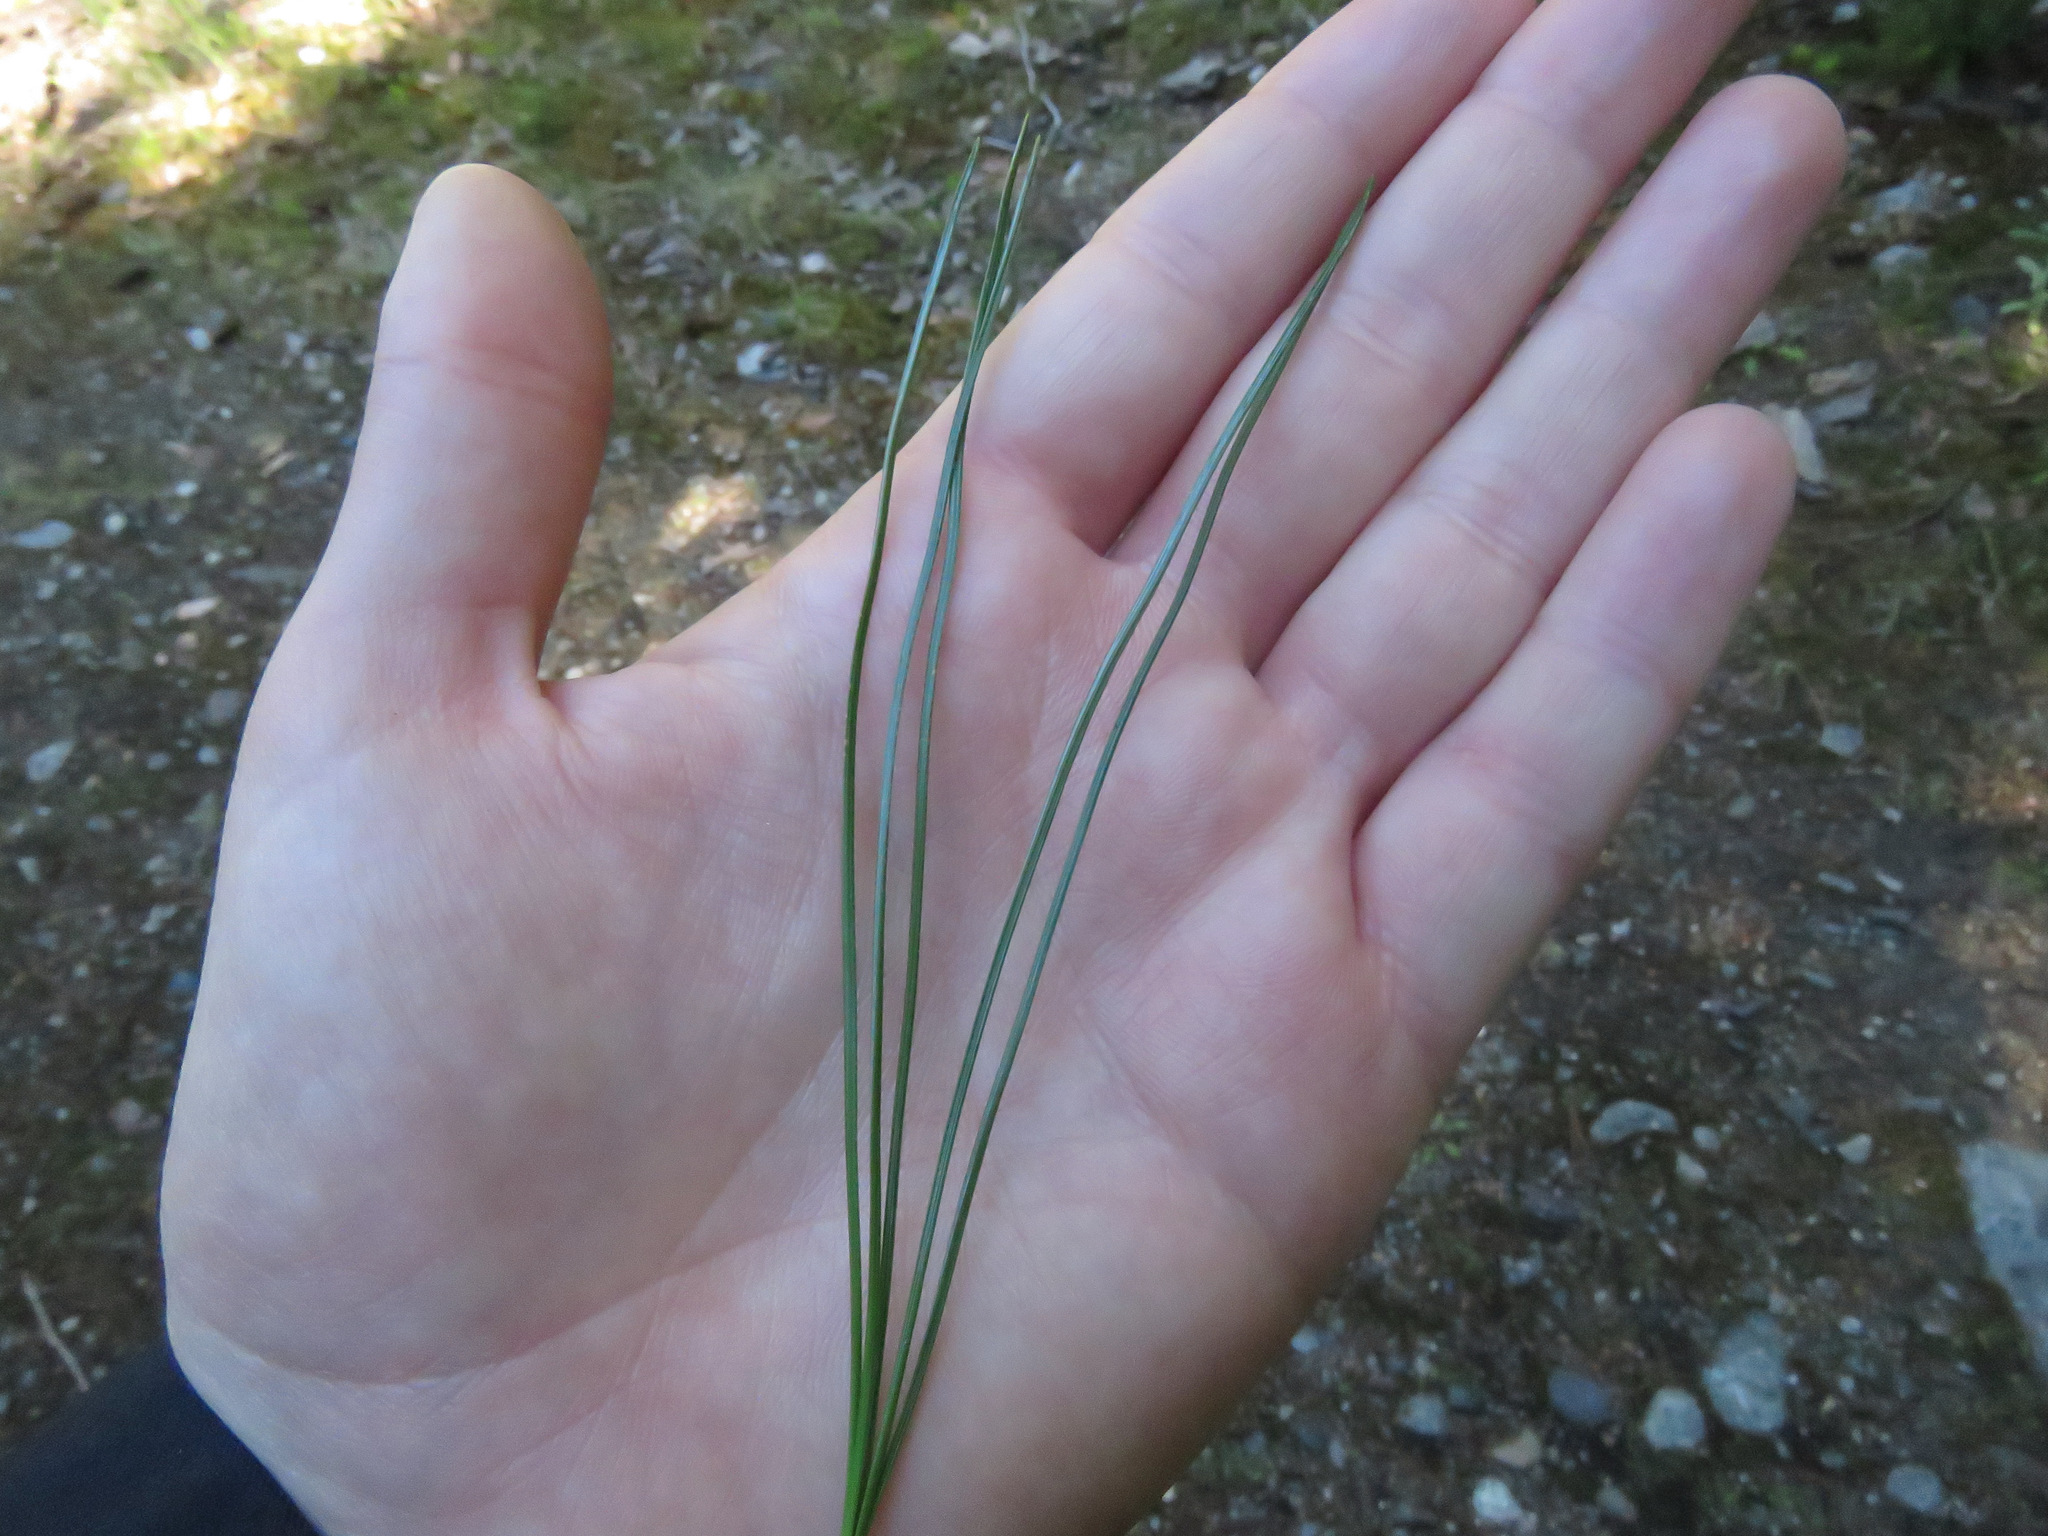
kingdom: Plantae
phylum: Tracheophyta
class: Pinopsida
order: Pinales
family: Pinaceae
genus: Pinus
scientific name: Pinus monticola
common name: Western white pine
